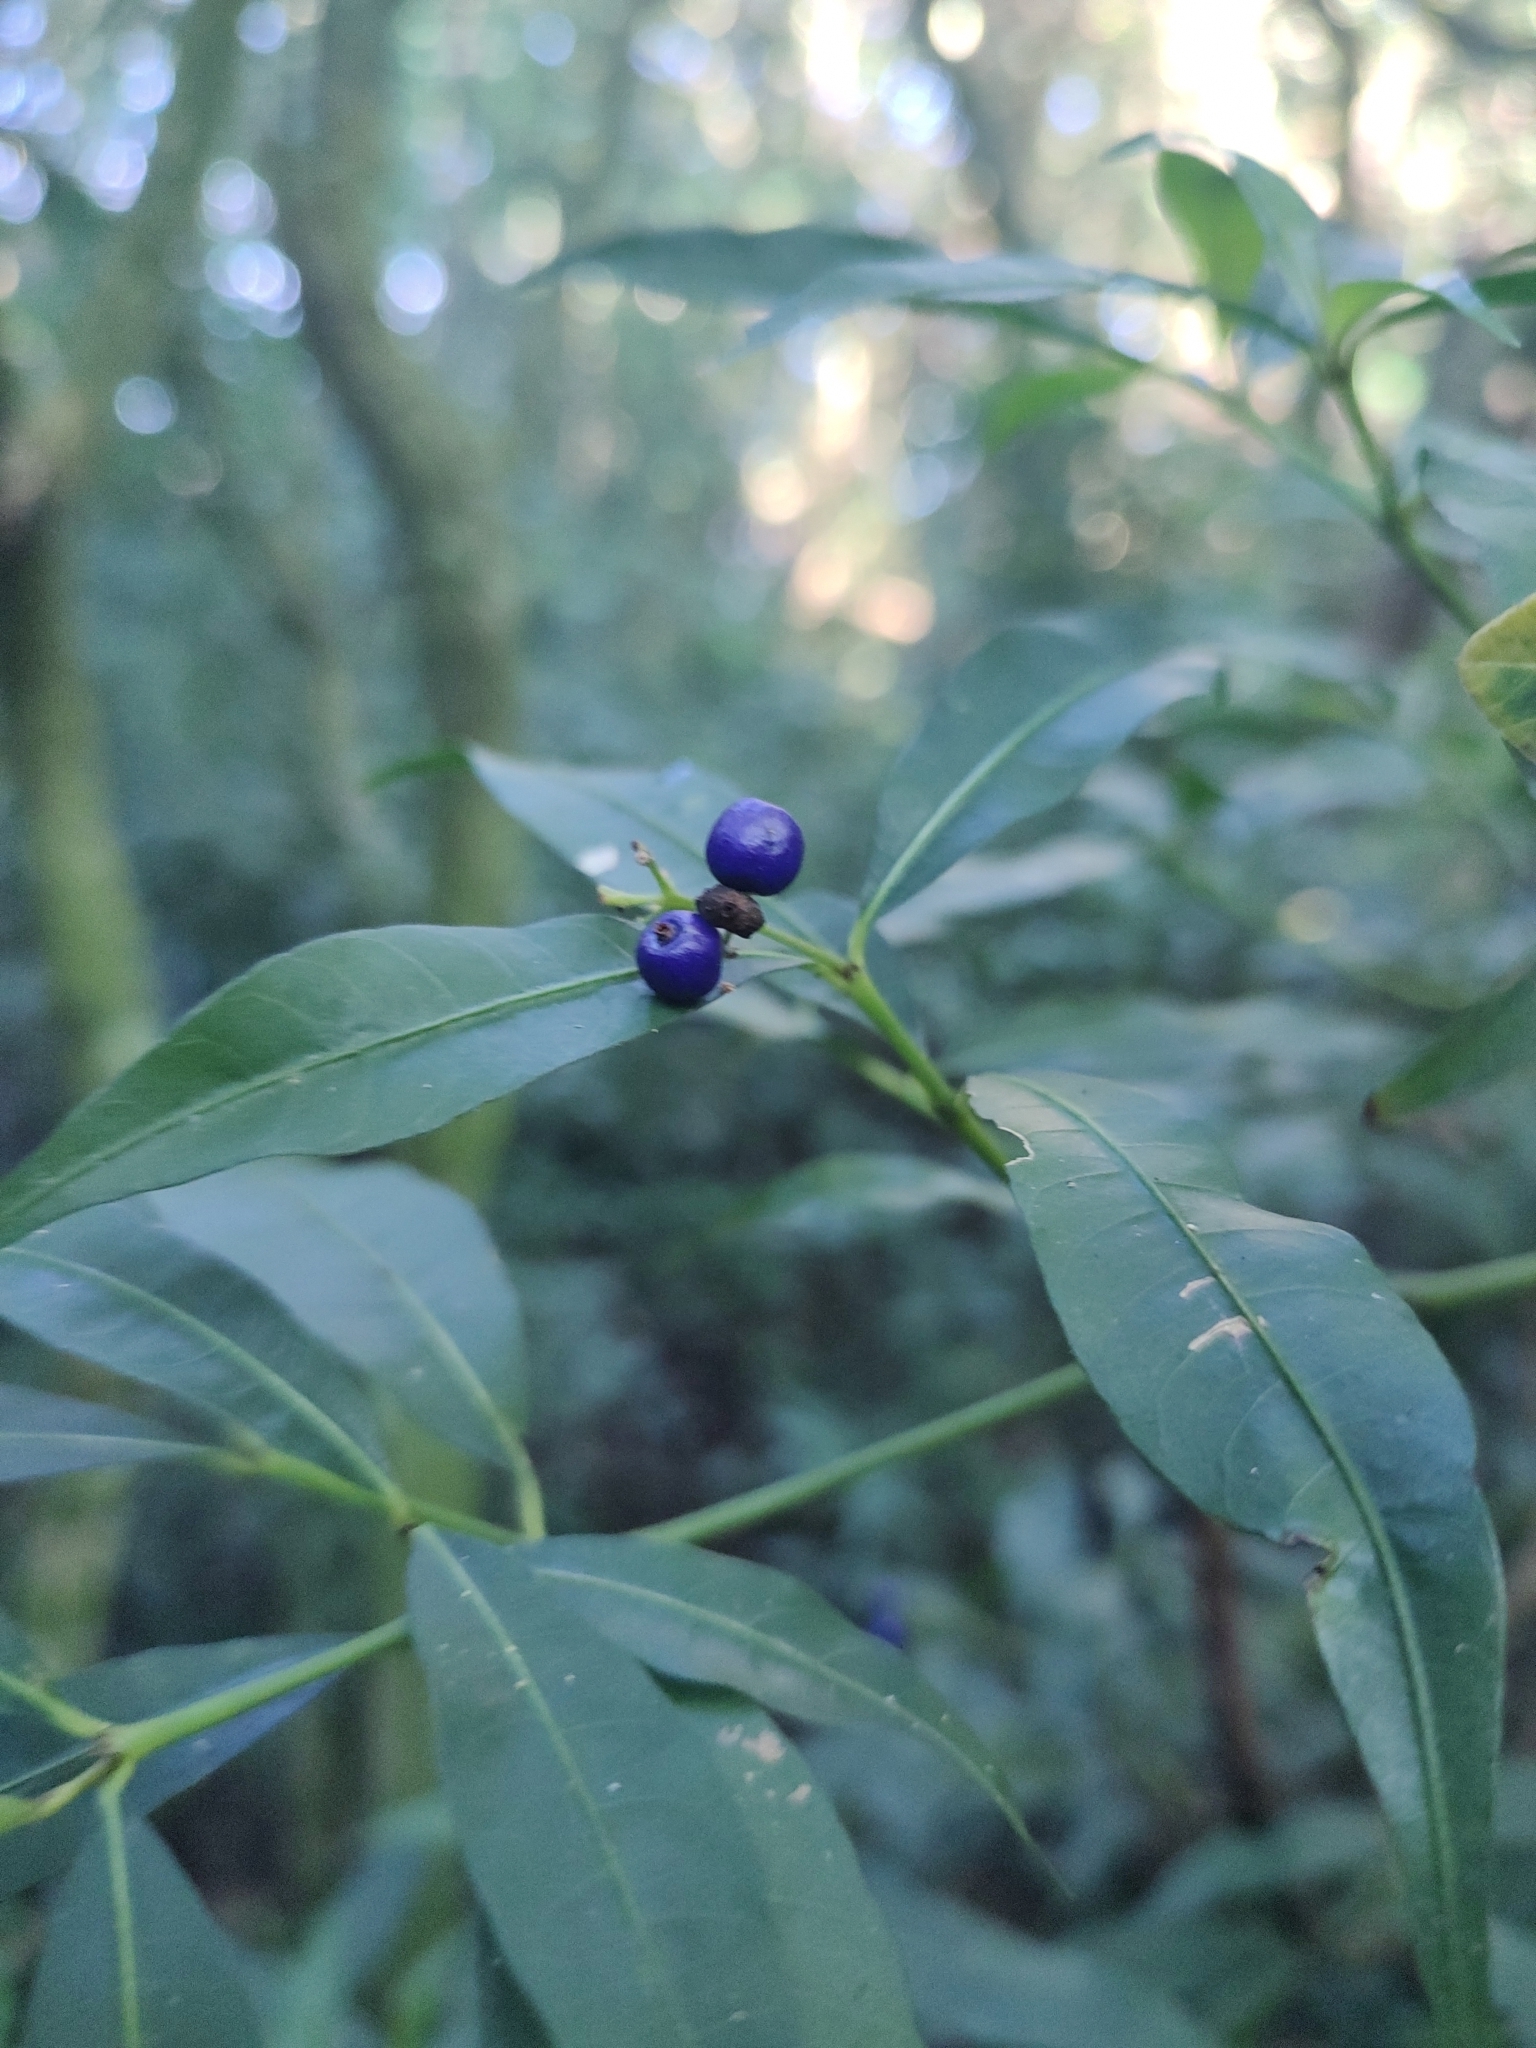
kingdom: Plantae
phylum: Tracheophyta
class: Magnoliopsida
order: Gentianales
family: Rubiaceae
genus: Psychotria
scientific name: Psychotria suterella
